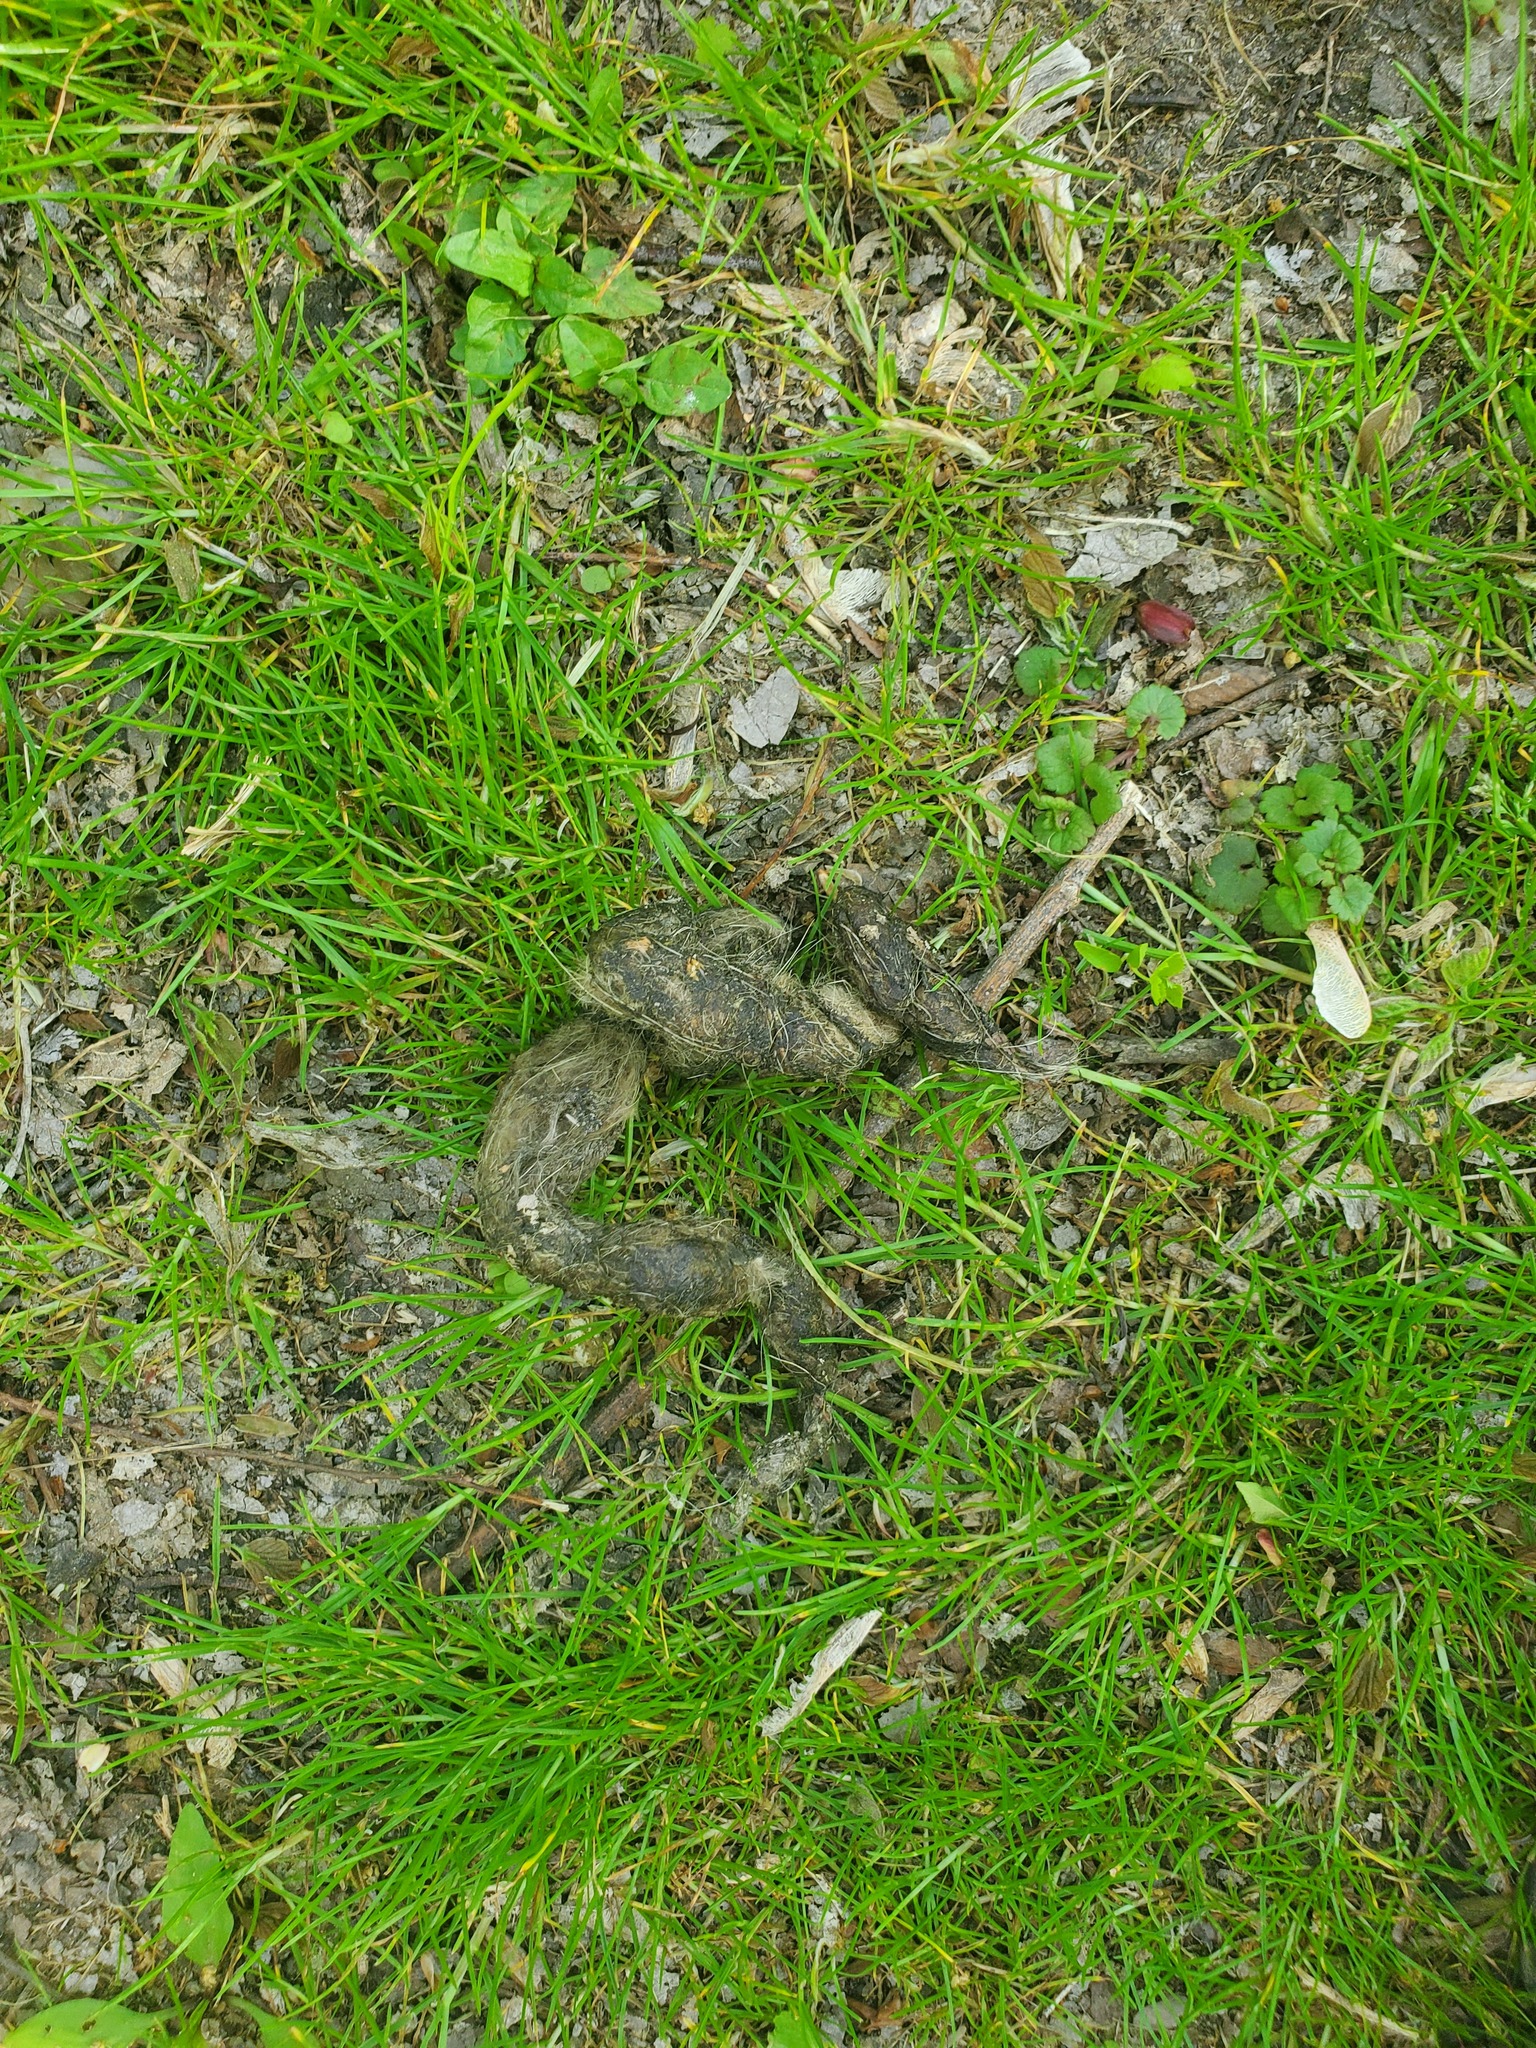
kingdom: Animalia
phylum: Chordata
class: Mammalia
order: Carnivora
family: Canidae
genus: Canis
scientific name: Canis latrans
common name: Coyote
